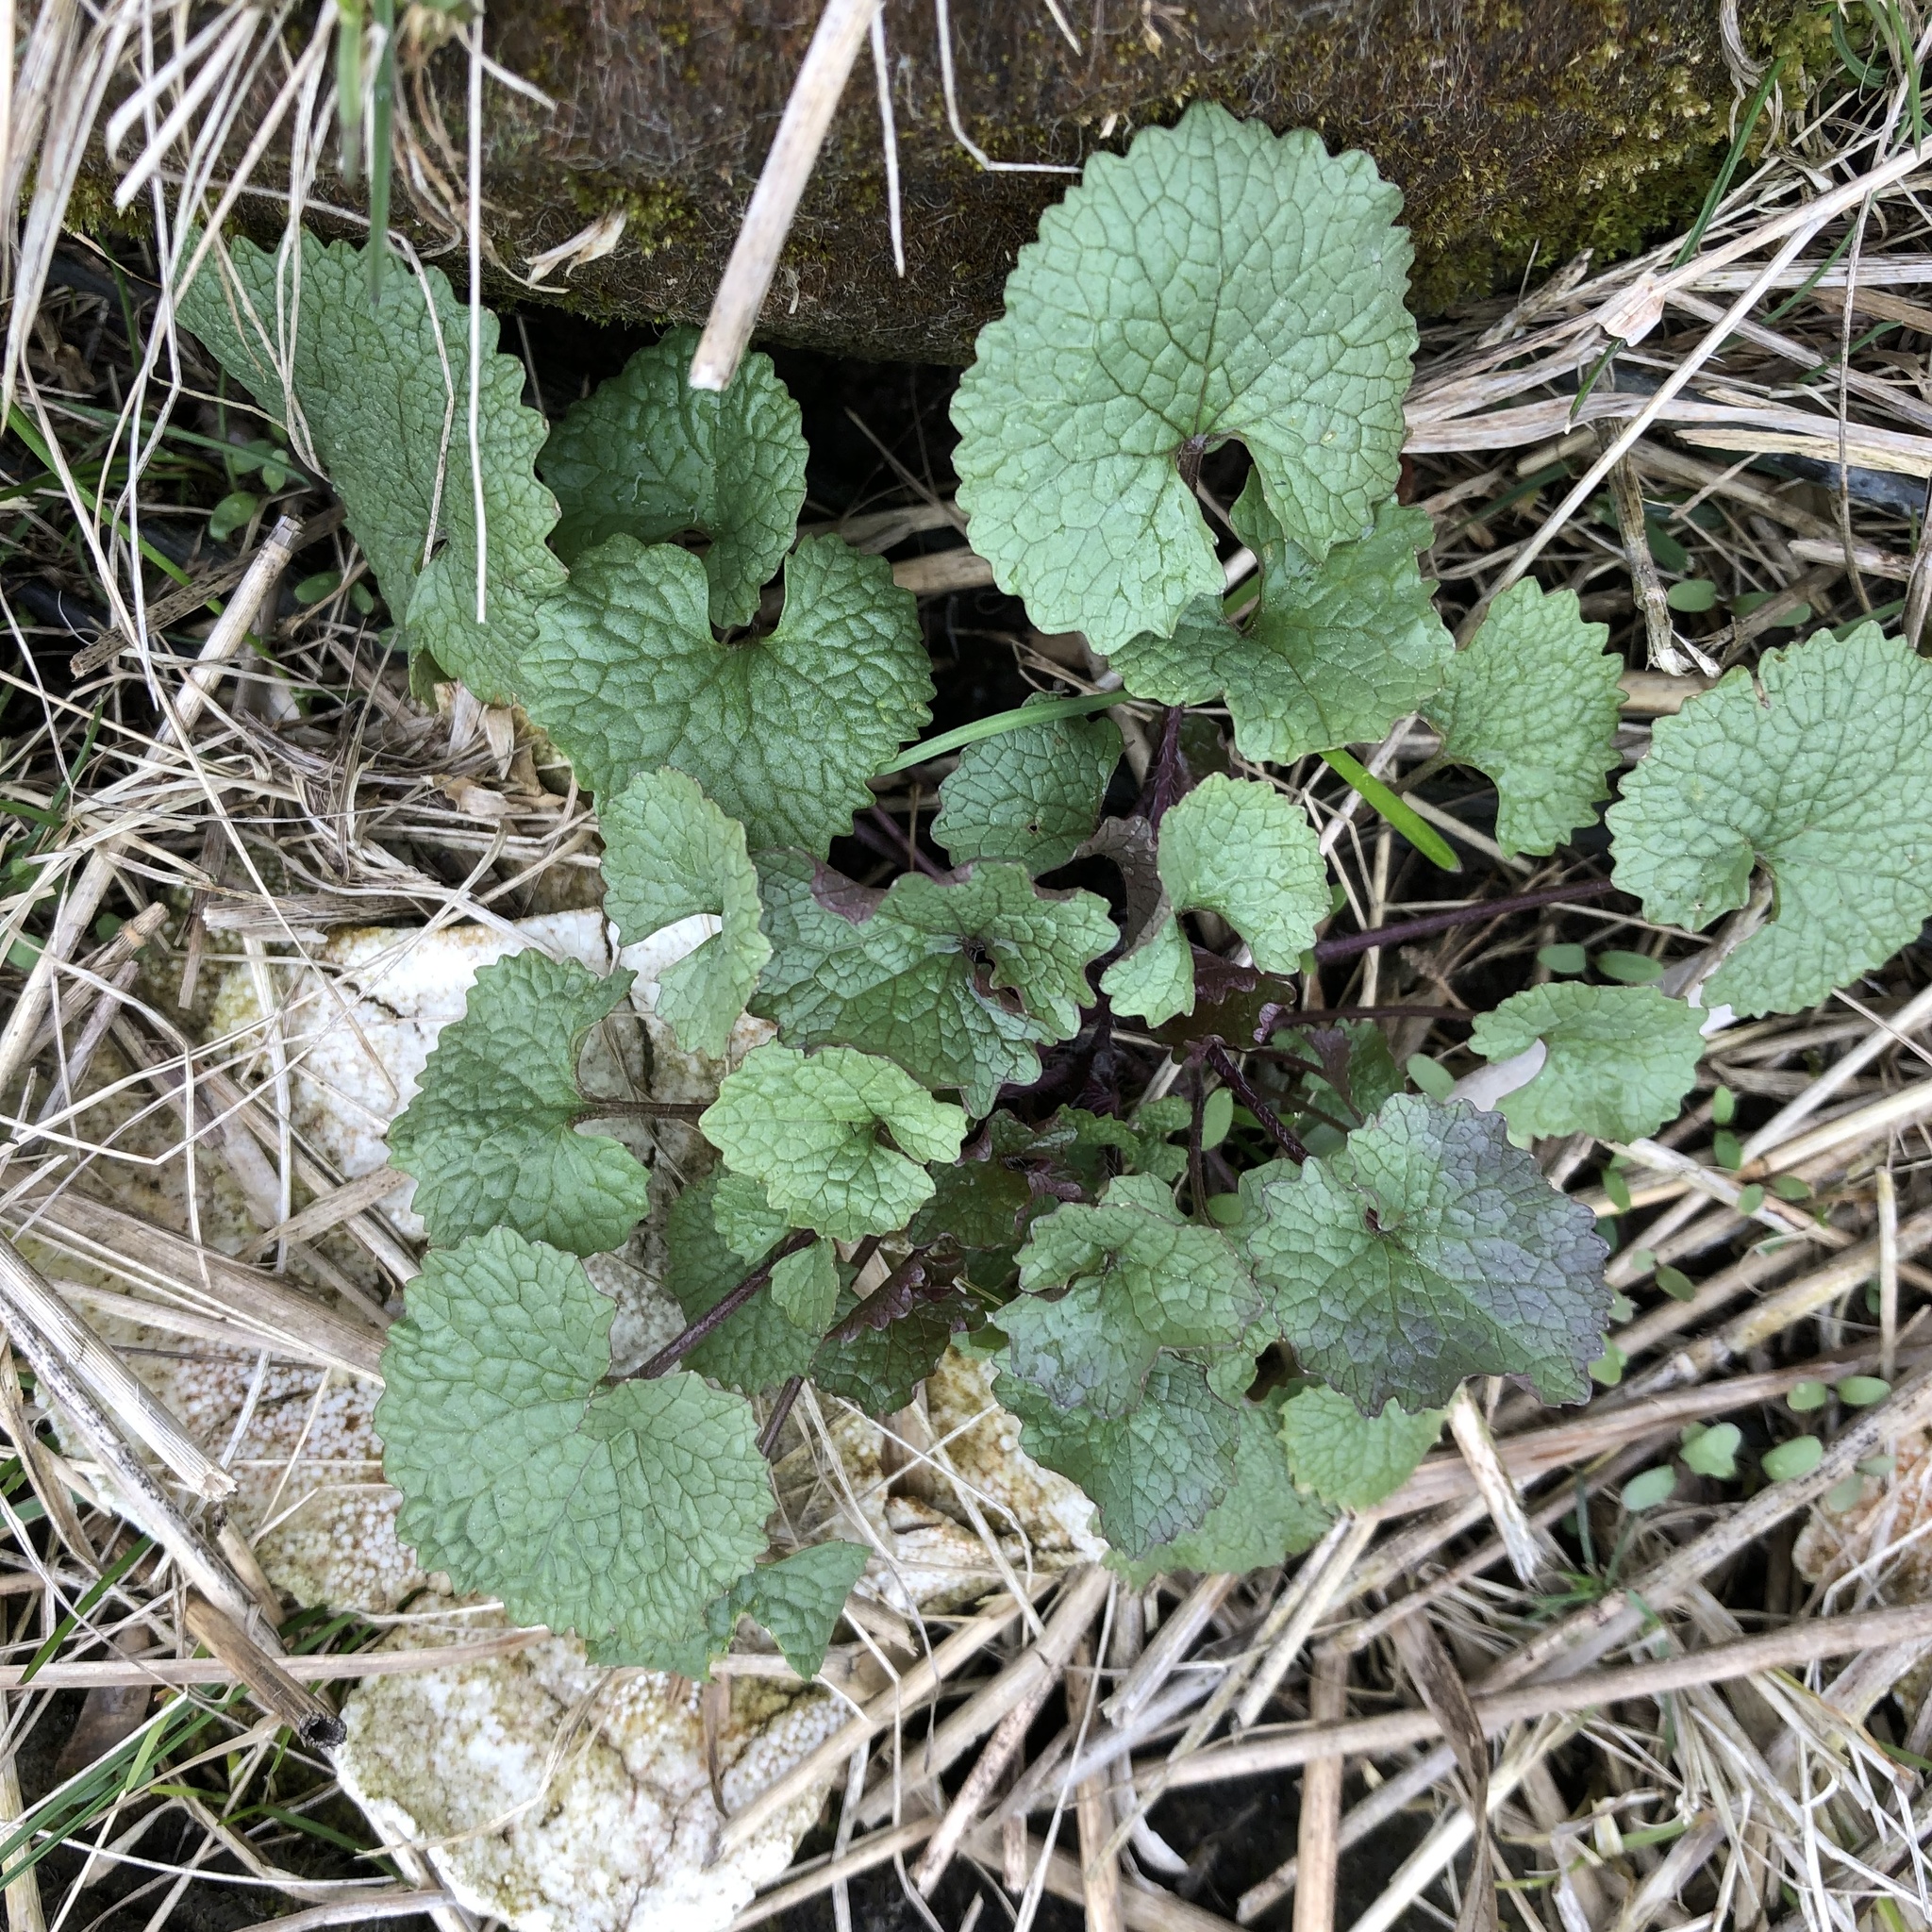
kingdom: Plantae
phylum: Tracheophyta
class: Magnoliopsida
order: Brassicales
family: Brassicaceae
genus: Alliaria
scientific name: Alliaria petiolata
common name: Garlic mustard
